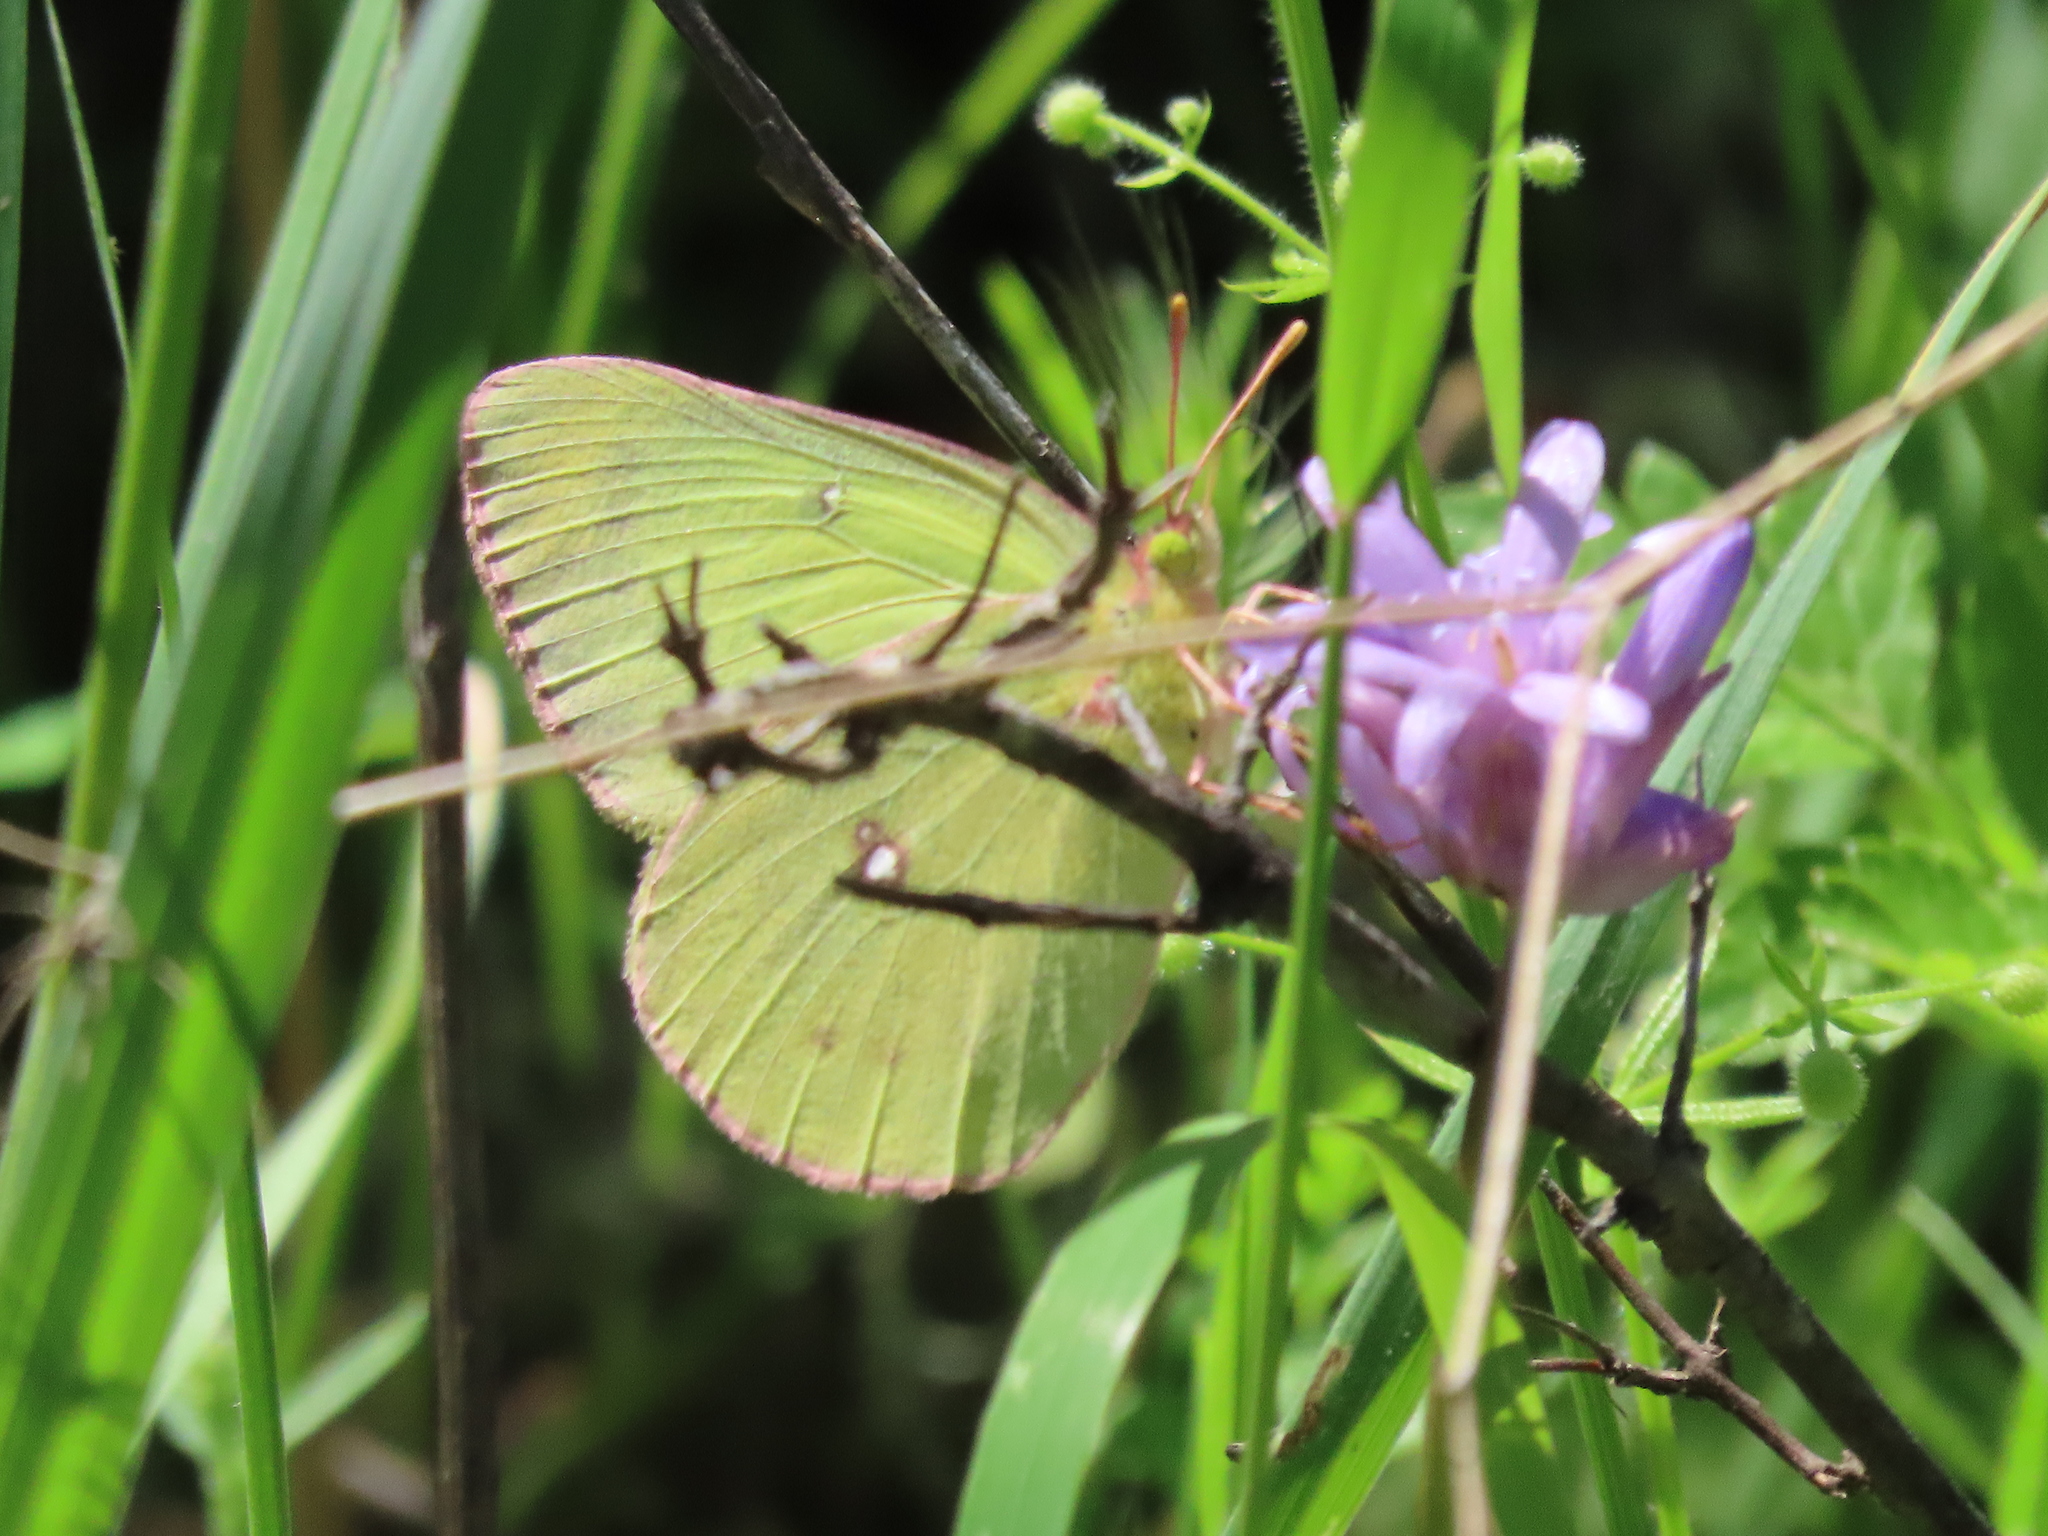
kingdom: Animalia
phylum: Arthropoda
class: Insecta
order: Lepidoptera
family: Pieridae
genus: Colias
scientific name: Colias occidentalis
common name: Western sulphur
